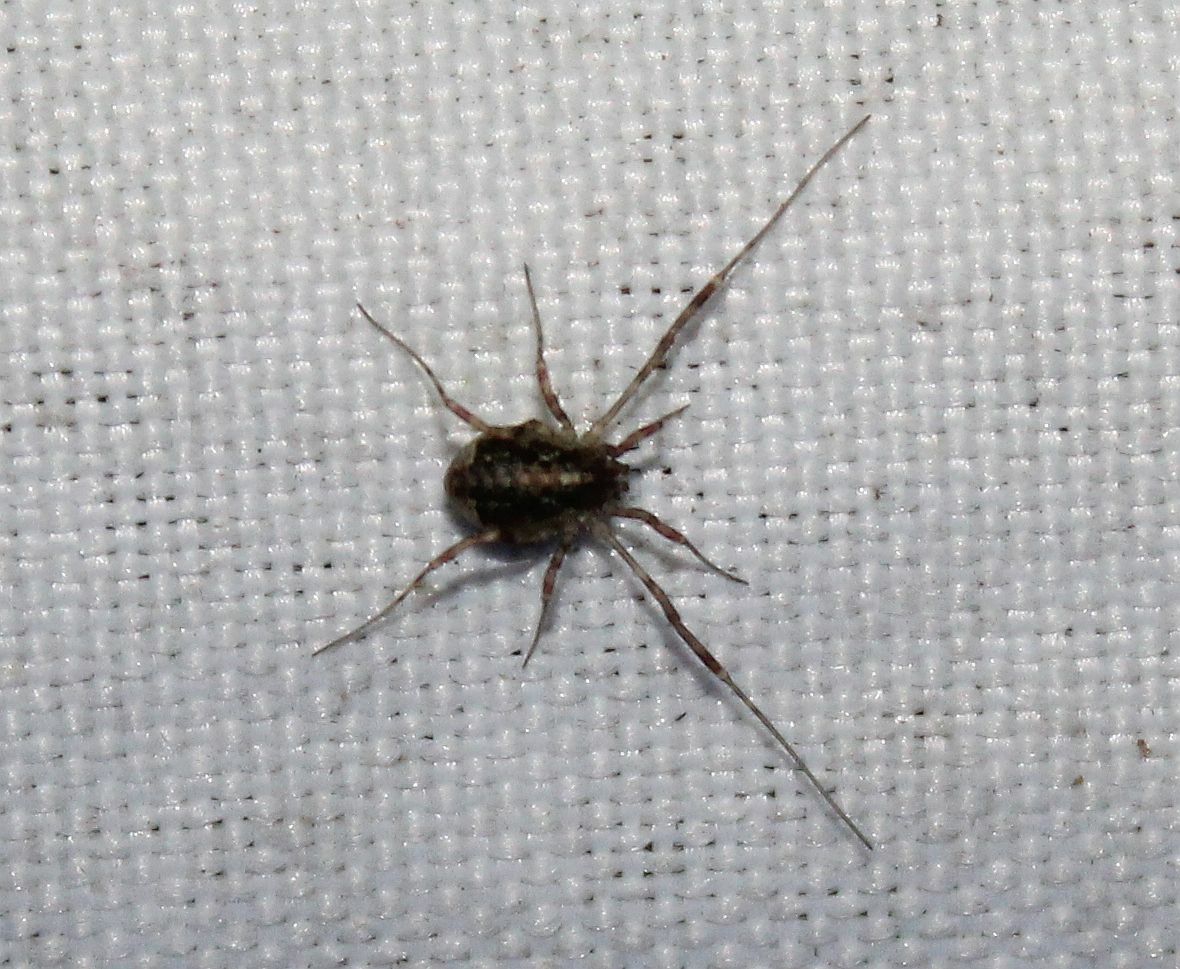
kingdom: Animalia
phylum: Arthropoda
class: Arachnida
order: Opiliones
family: Phalangiidae
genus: Paroligolophus
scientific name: Paroligolophus agrestis
